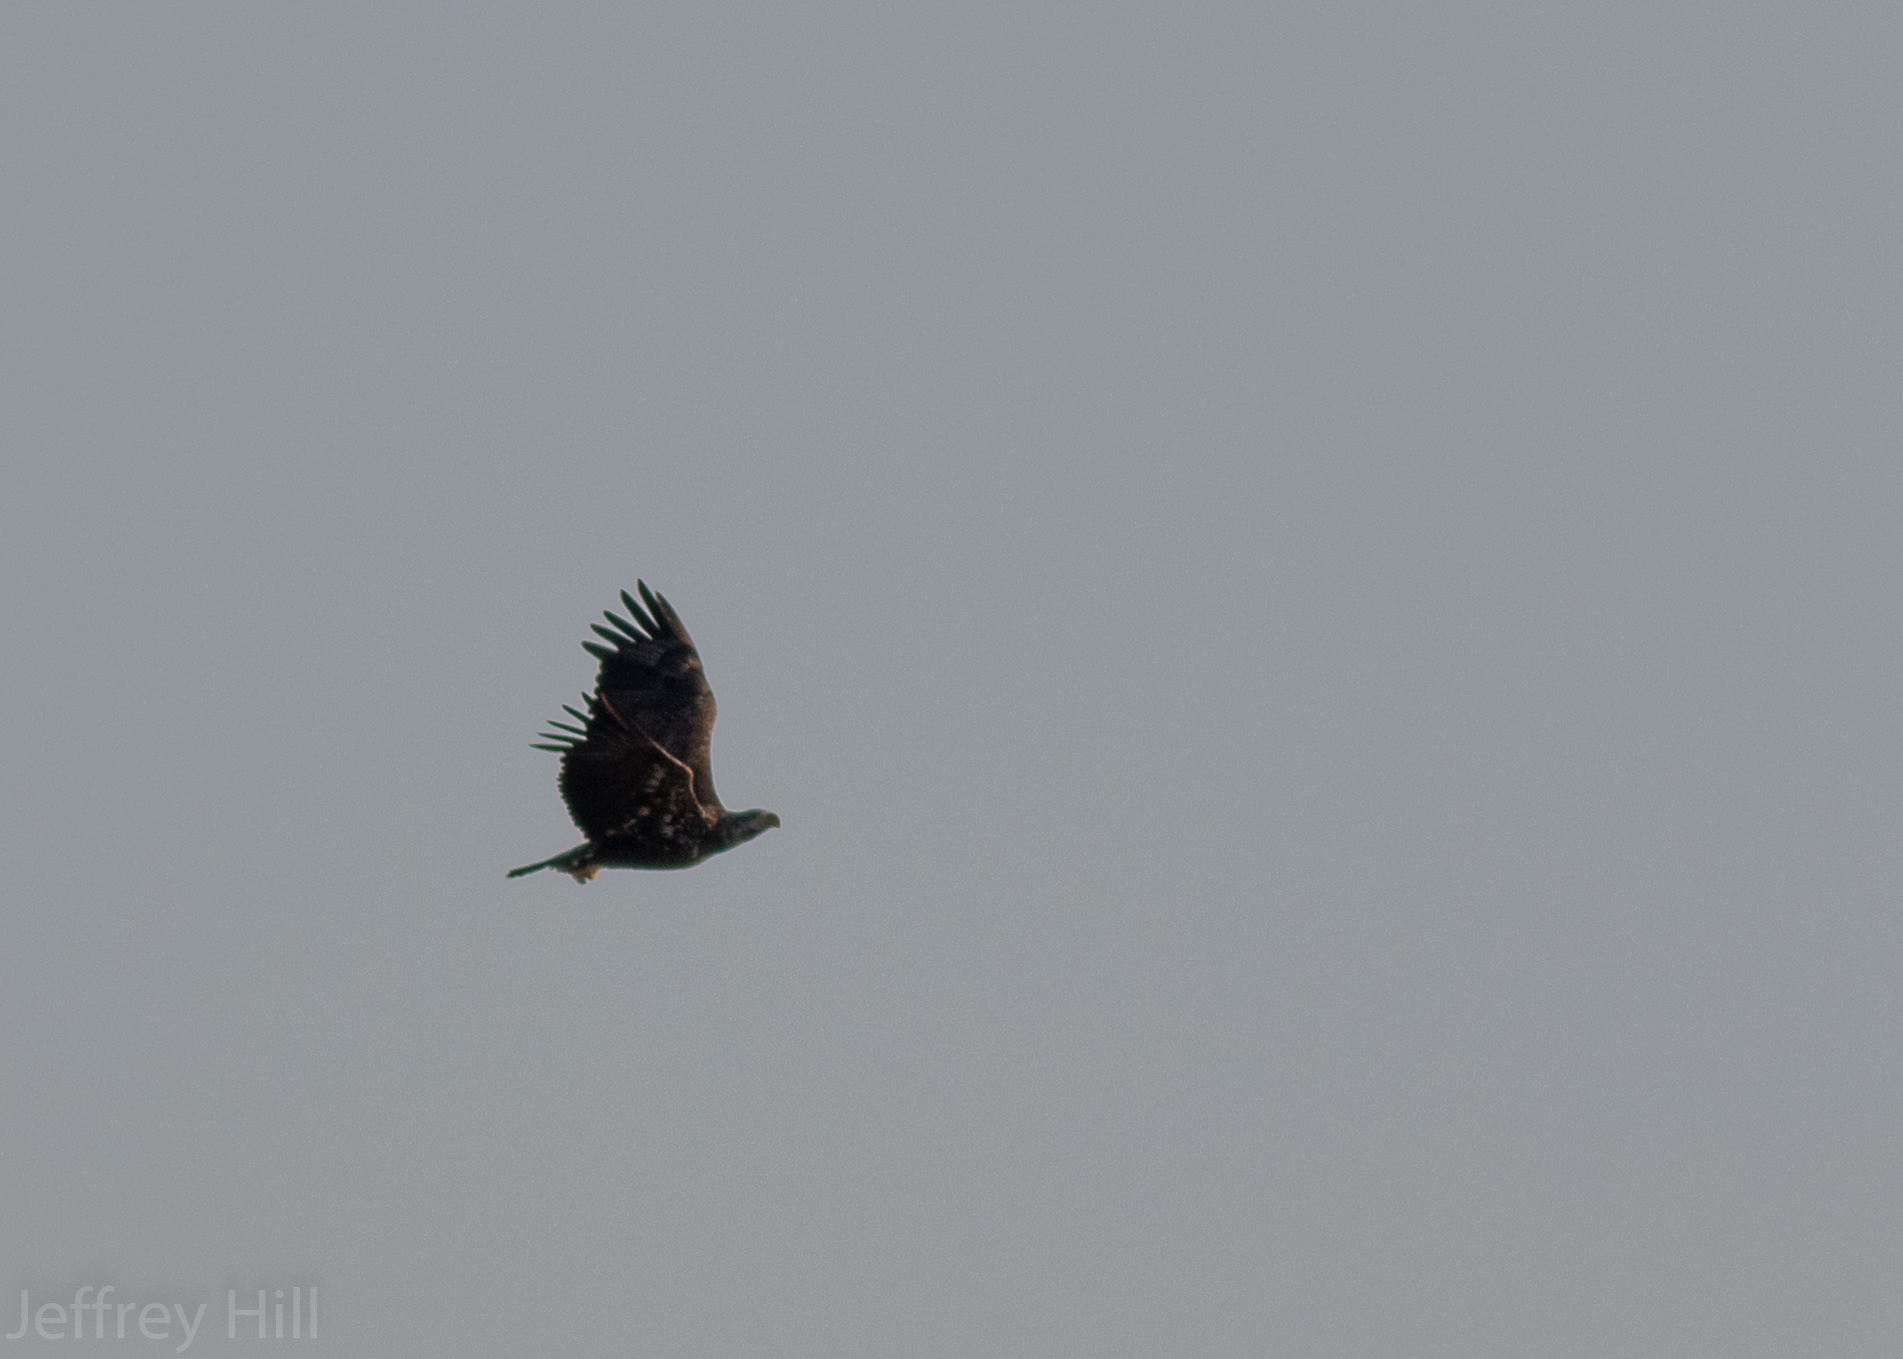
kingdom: Animalia
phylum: Chordata
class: Aves
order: Accipitriformes
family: Accipitridae
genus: Haliaeetus
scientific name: Haliaeetus leucocephalus
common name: Bald eagle
